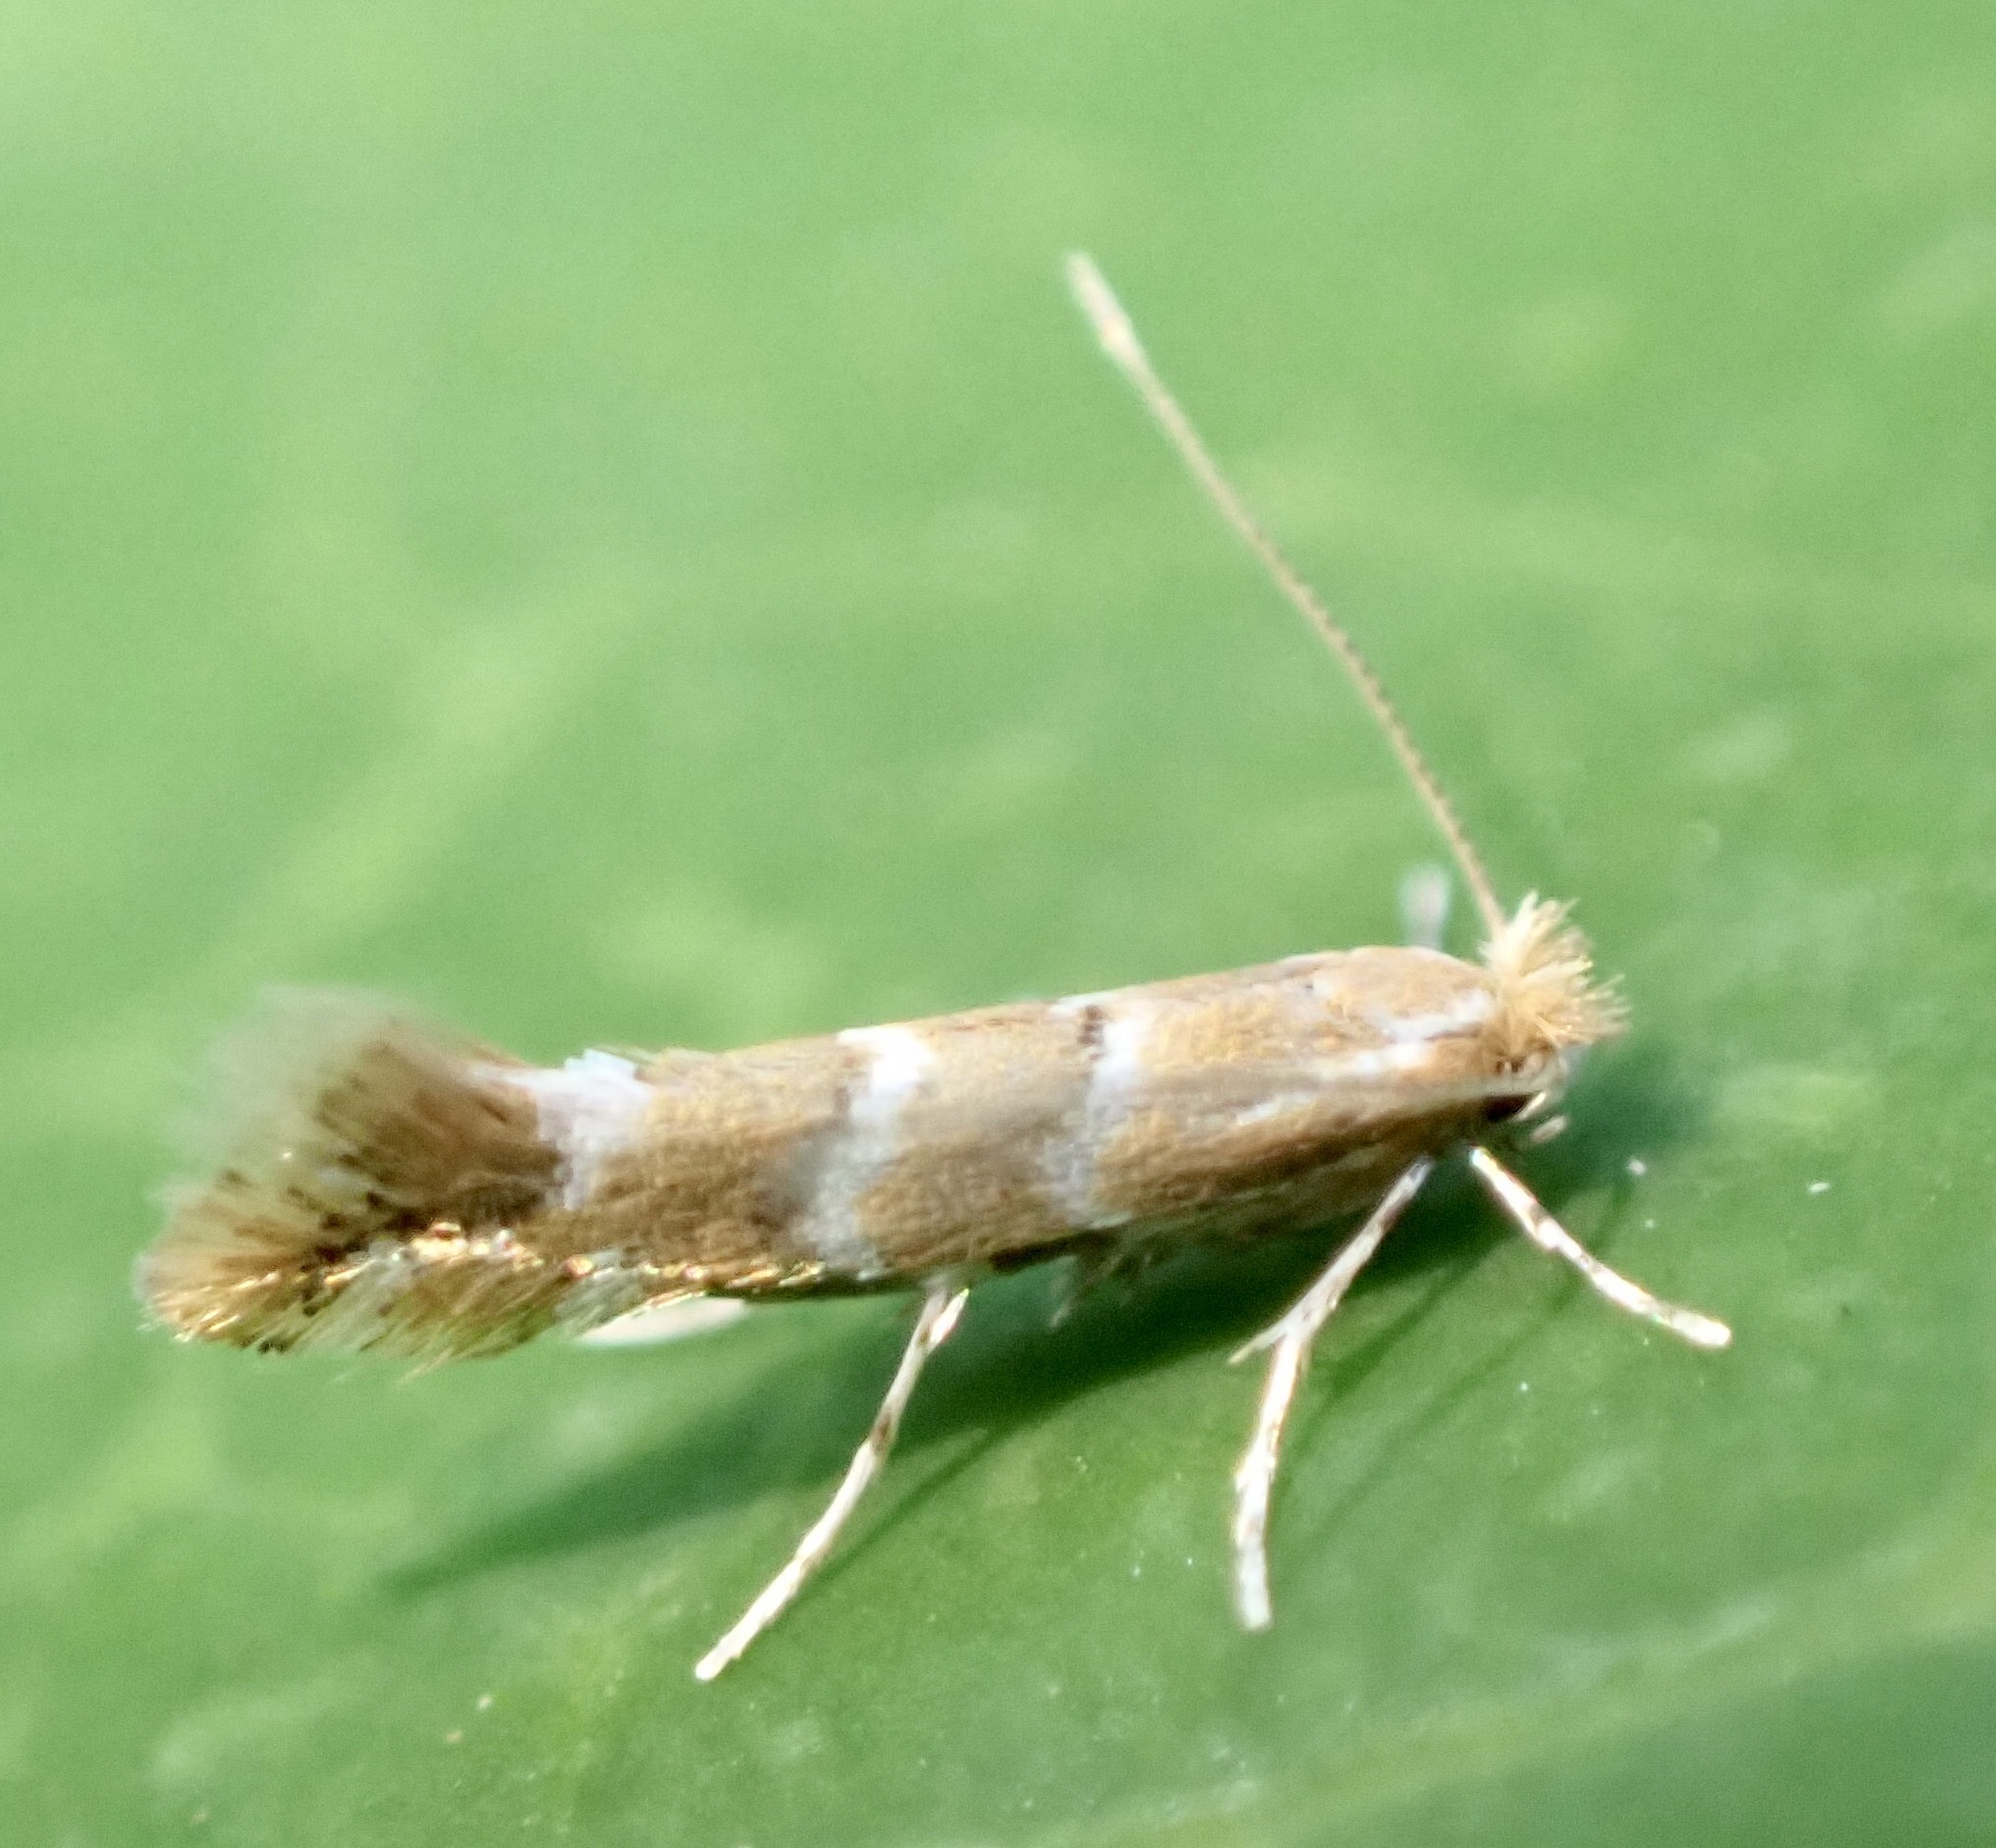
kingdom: Animalia
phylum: Arthropoda
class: Insecta
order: Lepidoptera
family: Gracillariidae
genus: Cameraria
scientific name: Cameraria ohridella
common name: Horse-chestnut leaf-miner
